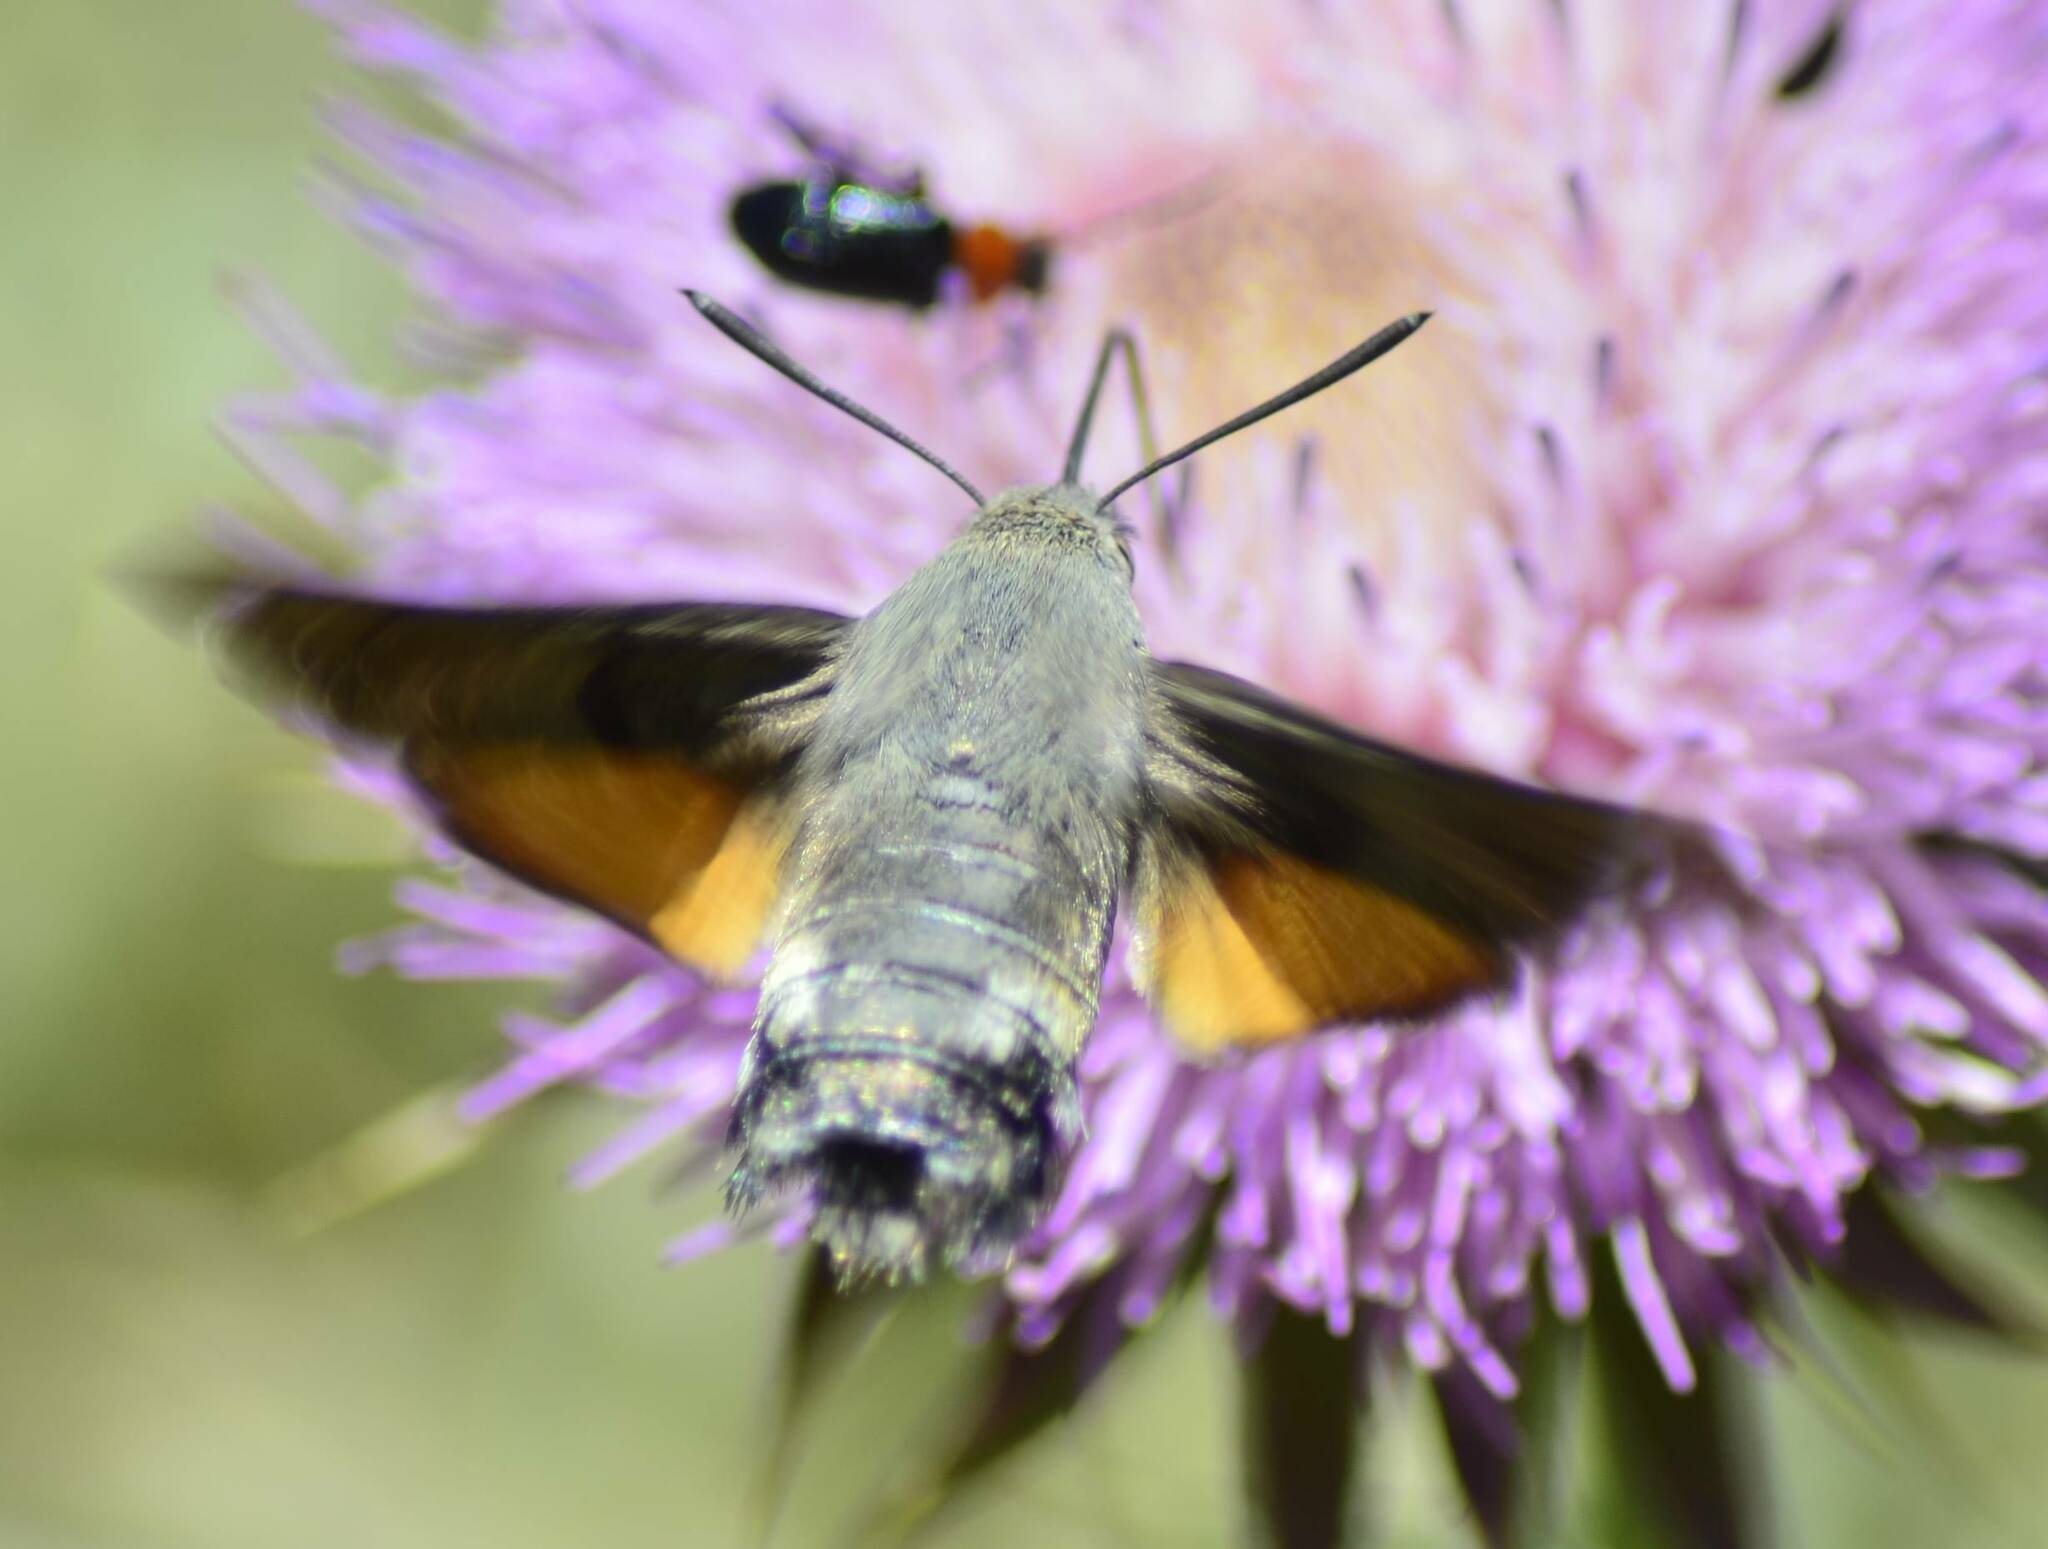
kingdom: Animalia
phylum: Arthropoda
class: Insecta
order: Lepidoptera
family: Sphingidae
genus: Macroglossum
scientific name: Macroglossum stellatarum
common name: Humming-bird hawk-moth
